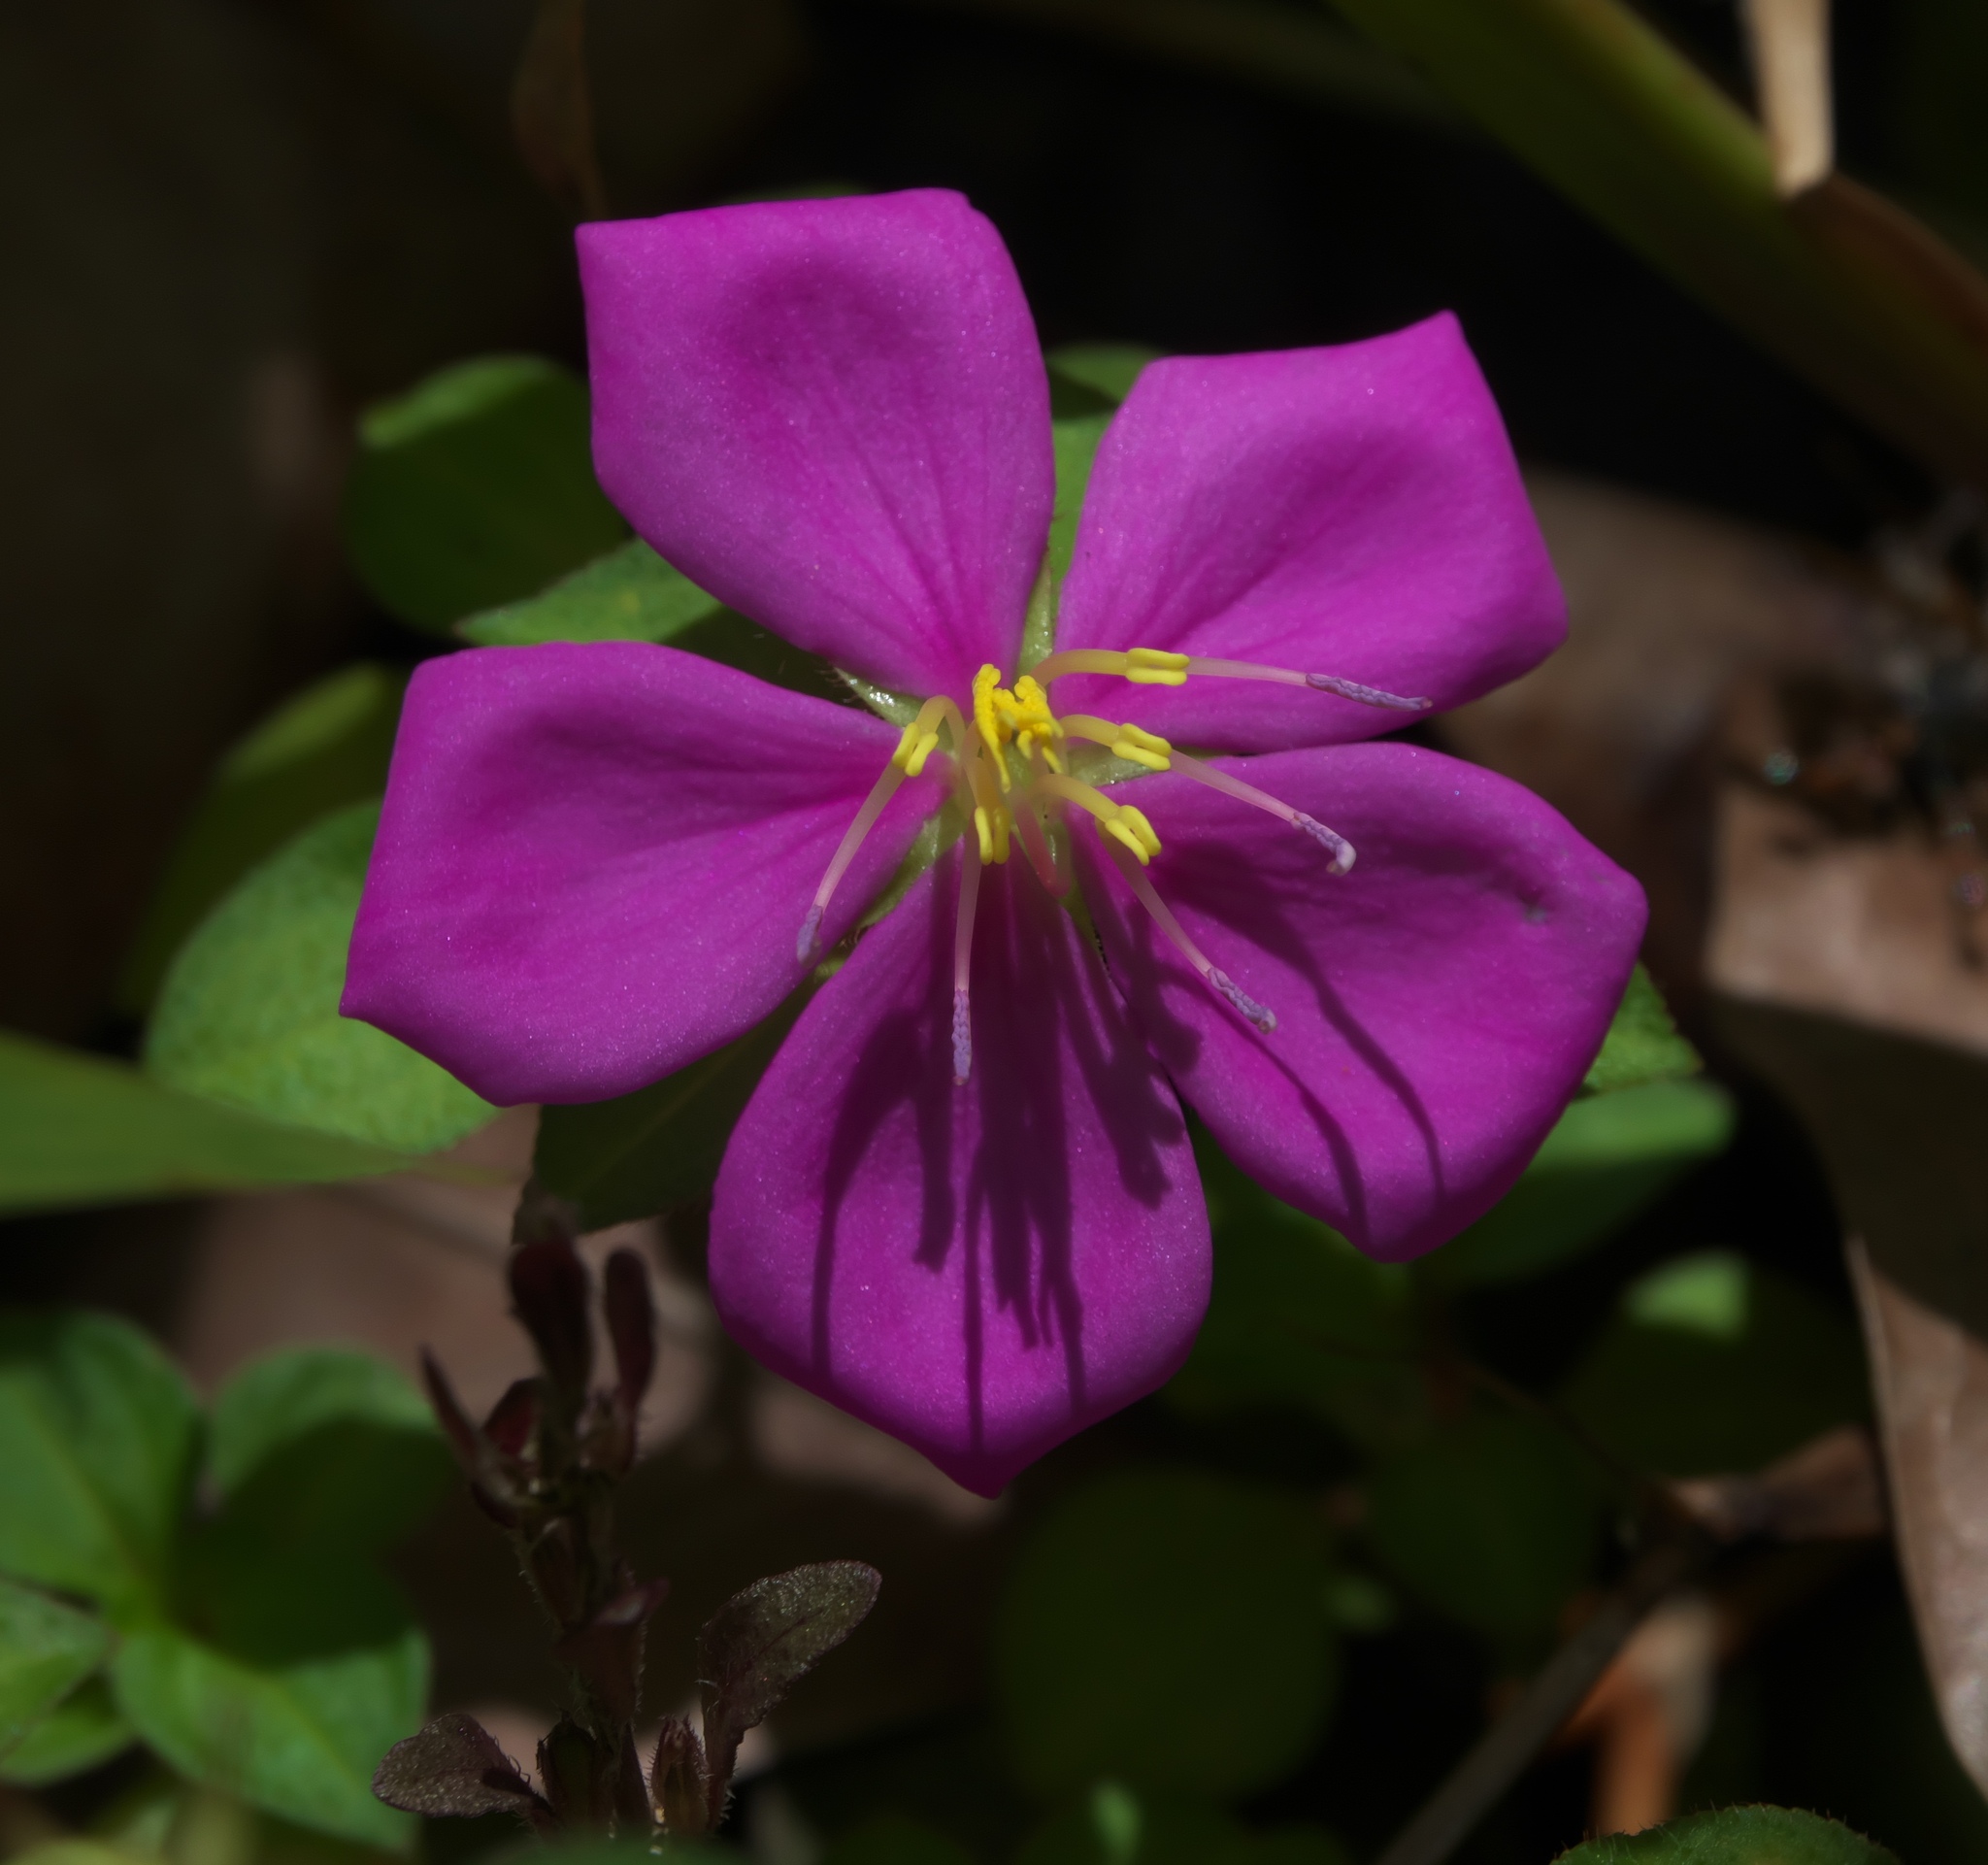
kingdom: Plantae
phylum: Tracheophyta
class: Magnoliopsida
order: Myrtales
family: Melastomataceae
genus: Heterotis
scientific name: Heterotis rotundifolia
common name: Pinklady
